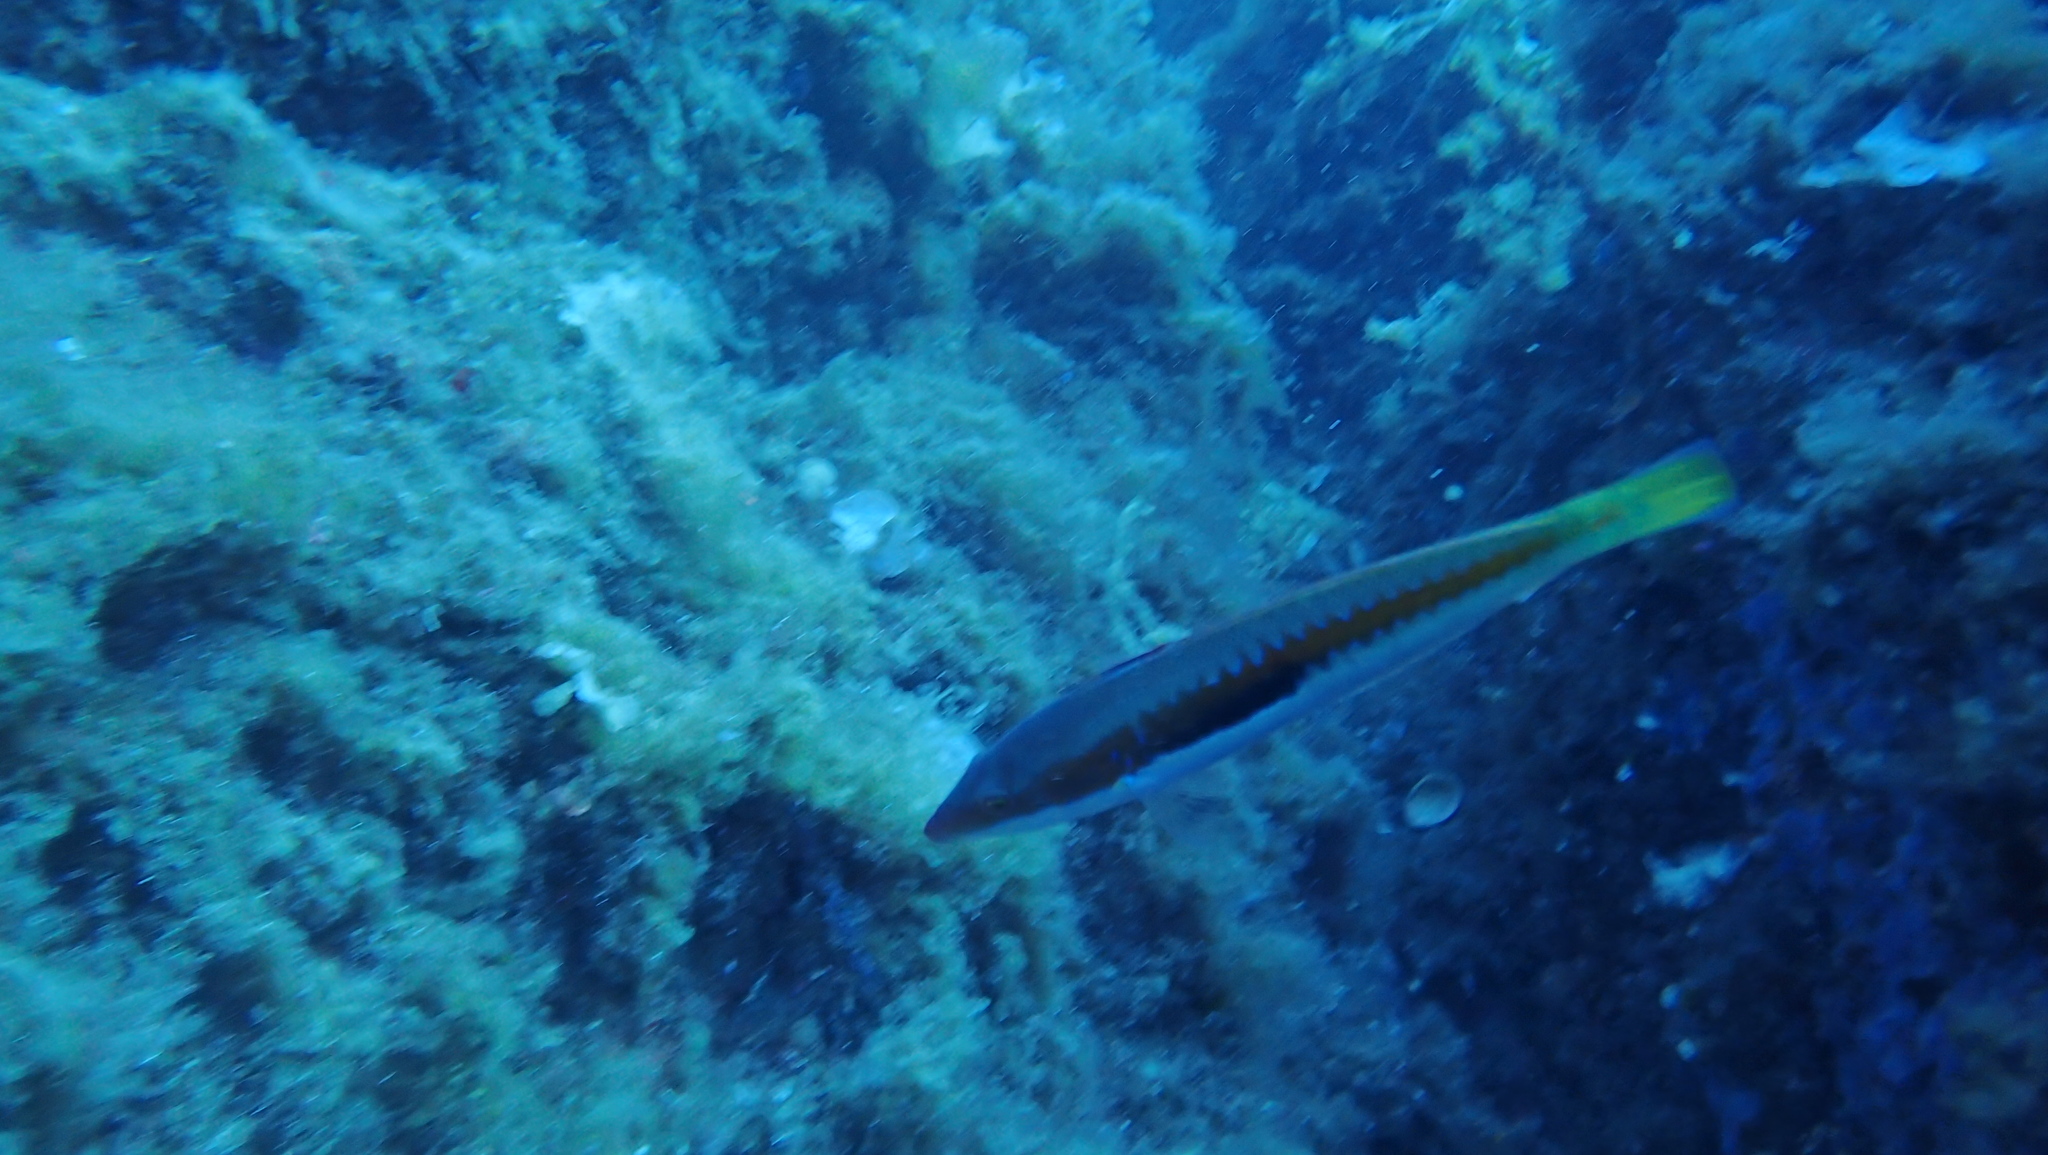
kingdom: Animalia
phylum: Chordata
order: Perciformes
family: Labridae
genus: Coris
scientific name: Coris julis
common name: Rainbow wrasse
